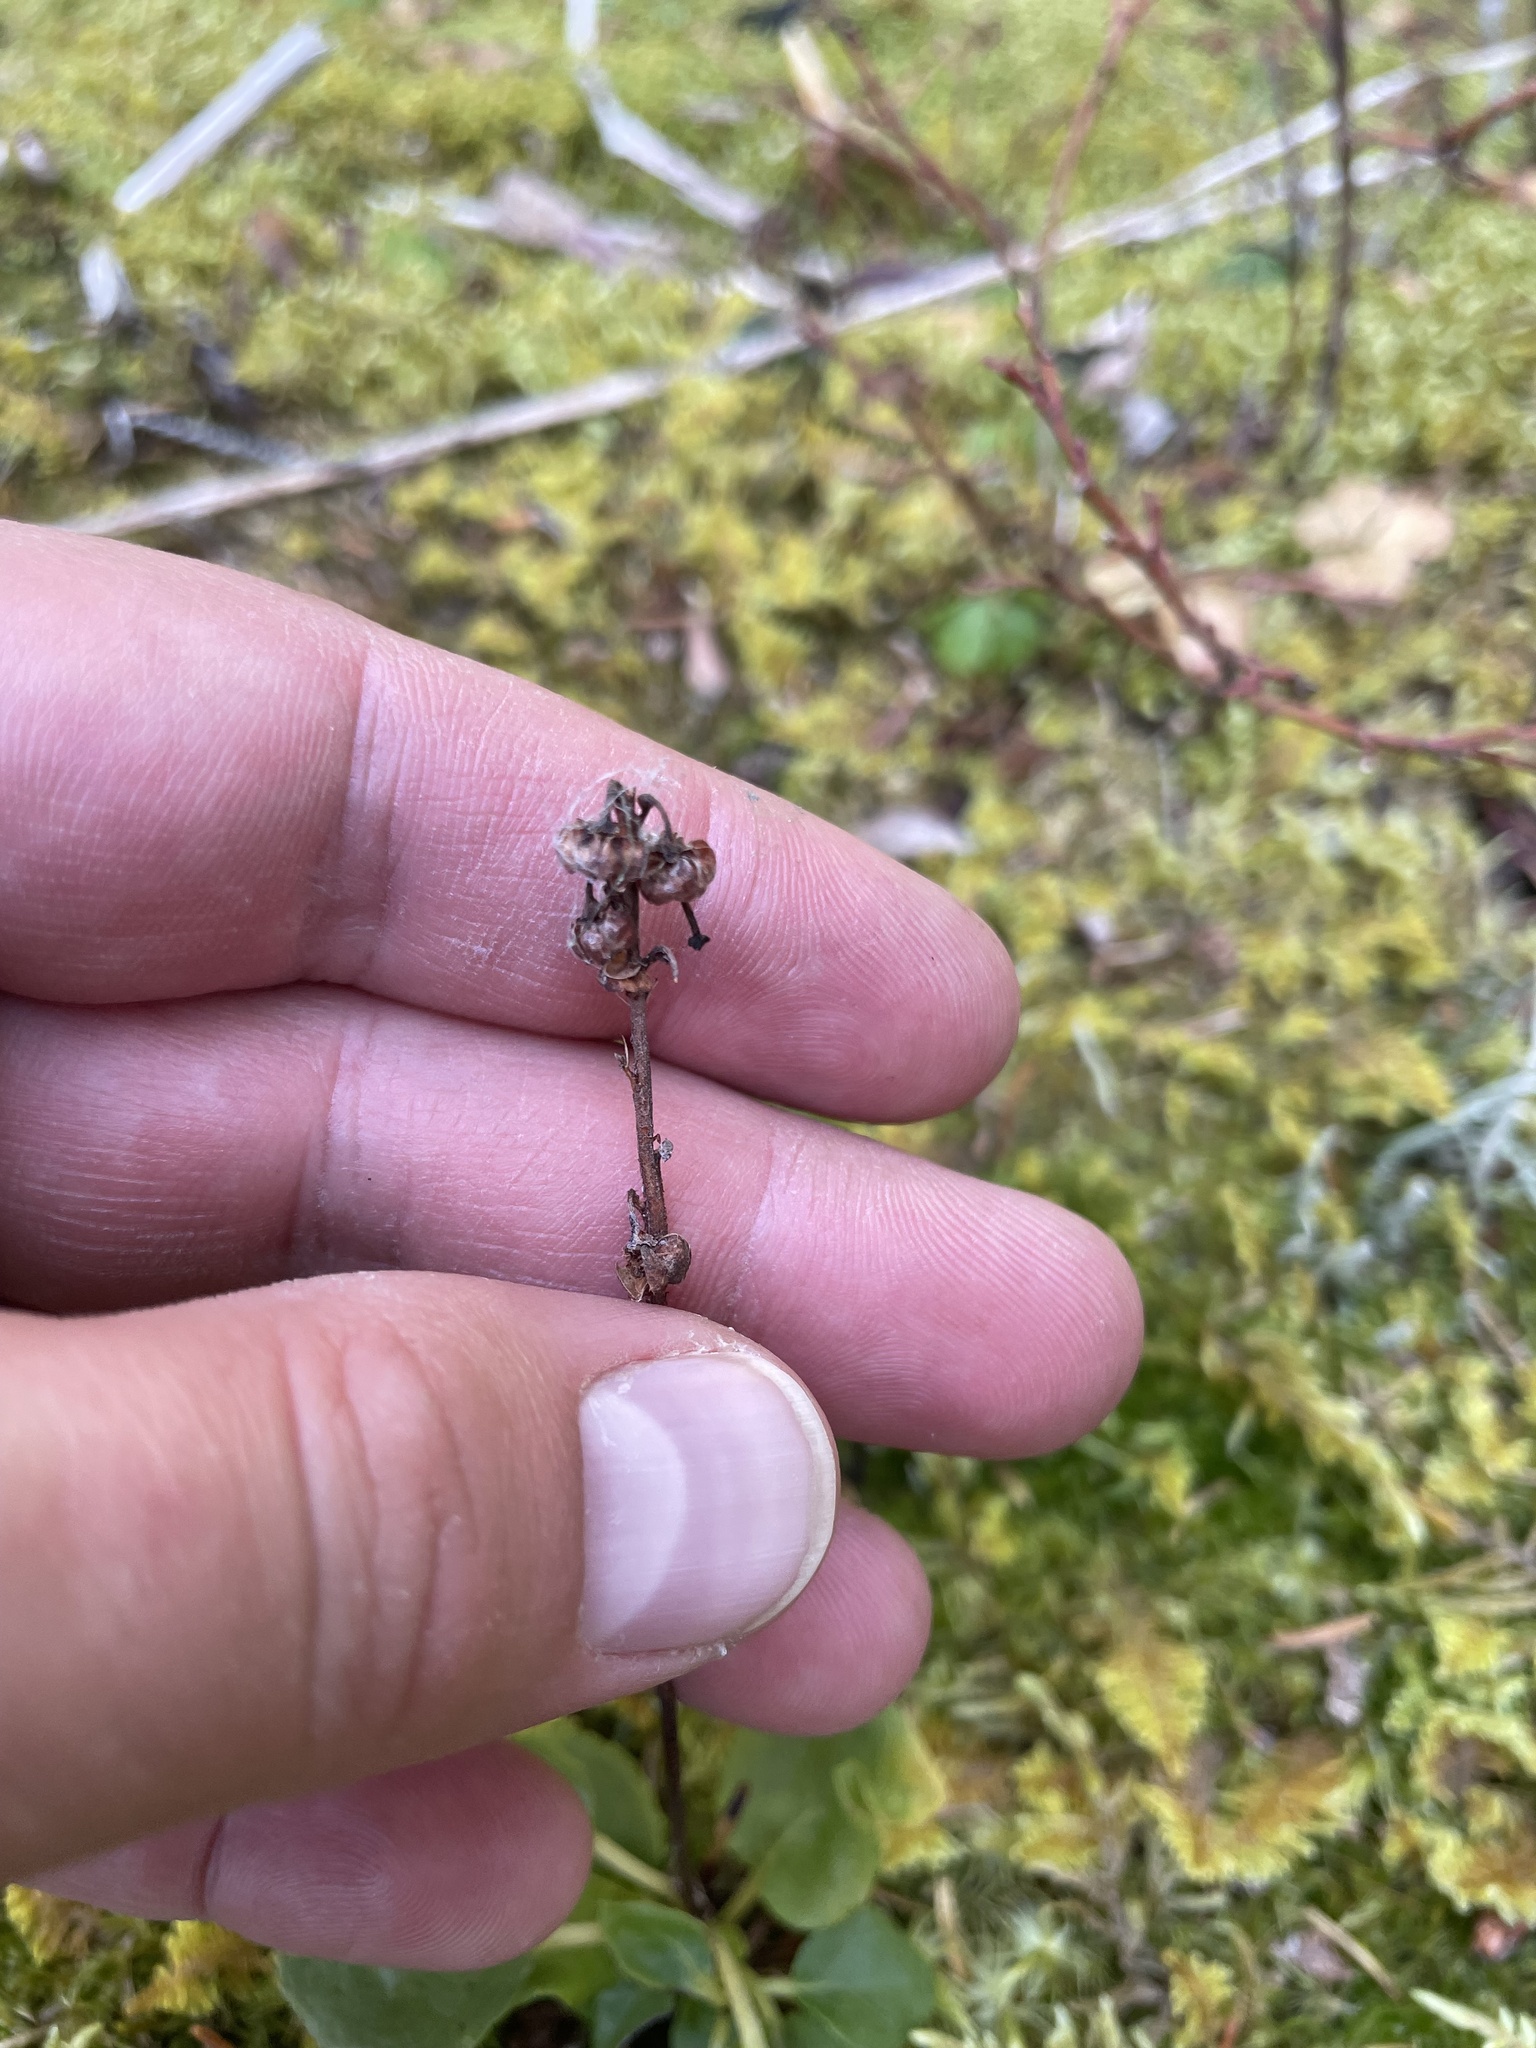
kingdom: Plantae
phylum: Tracheophyta
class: Magnoliopsida
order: Ericales
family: Ericaceae
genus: Orthilia
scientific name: Orthilia secunda
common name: One-sided orthilia
